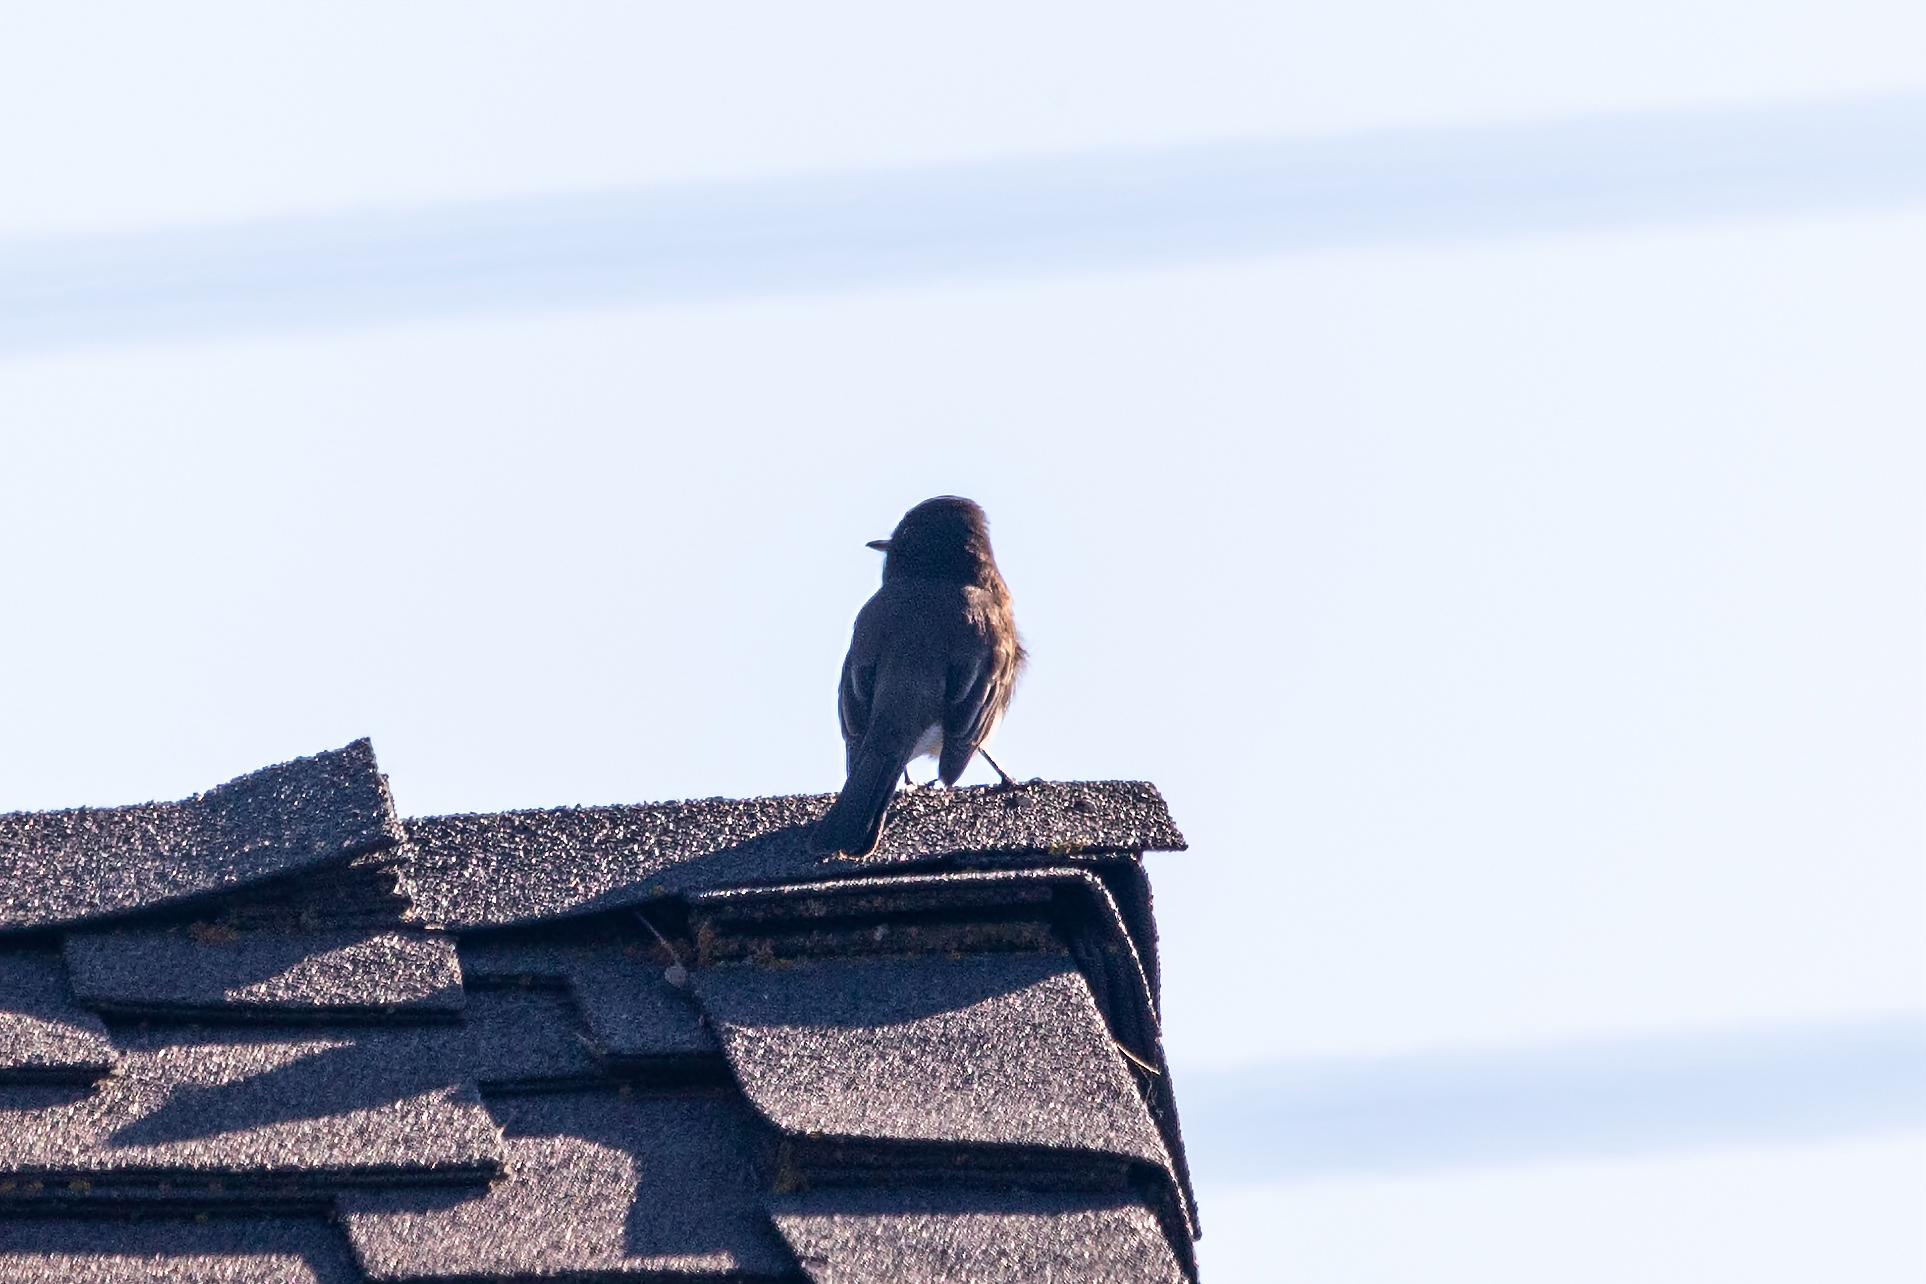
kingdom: Animalia
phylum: Chordata
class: Aves
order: Passeriformes
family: Tyrannidae
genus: Sayornis
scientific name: Sayornis nigricans
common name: Black phoebe
